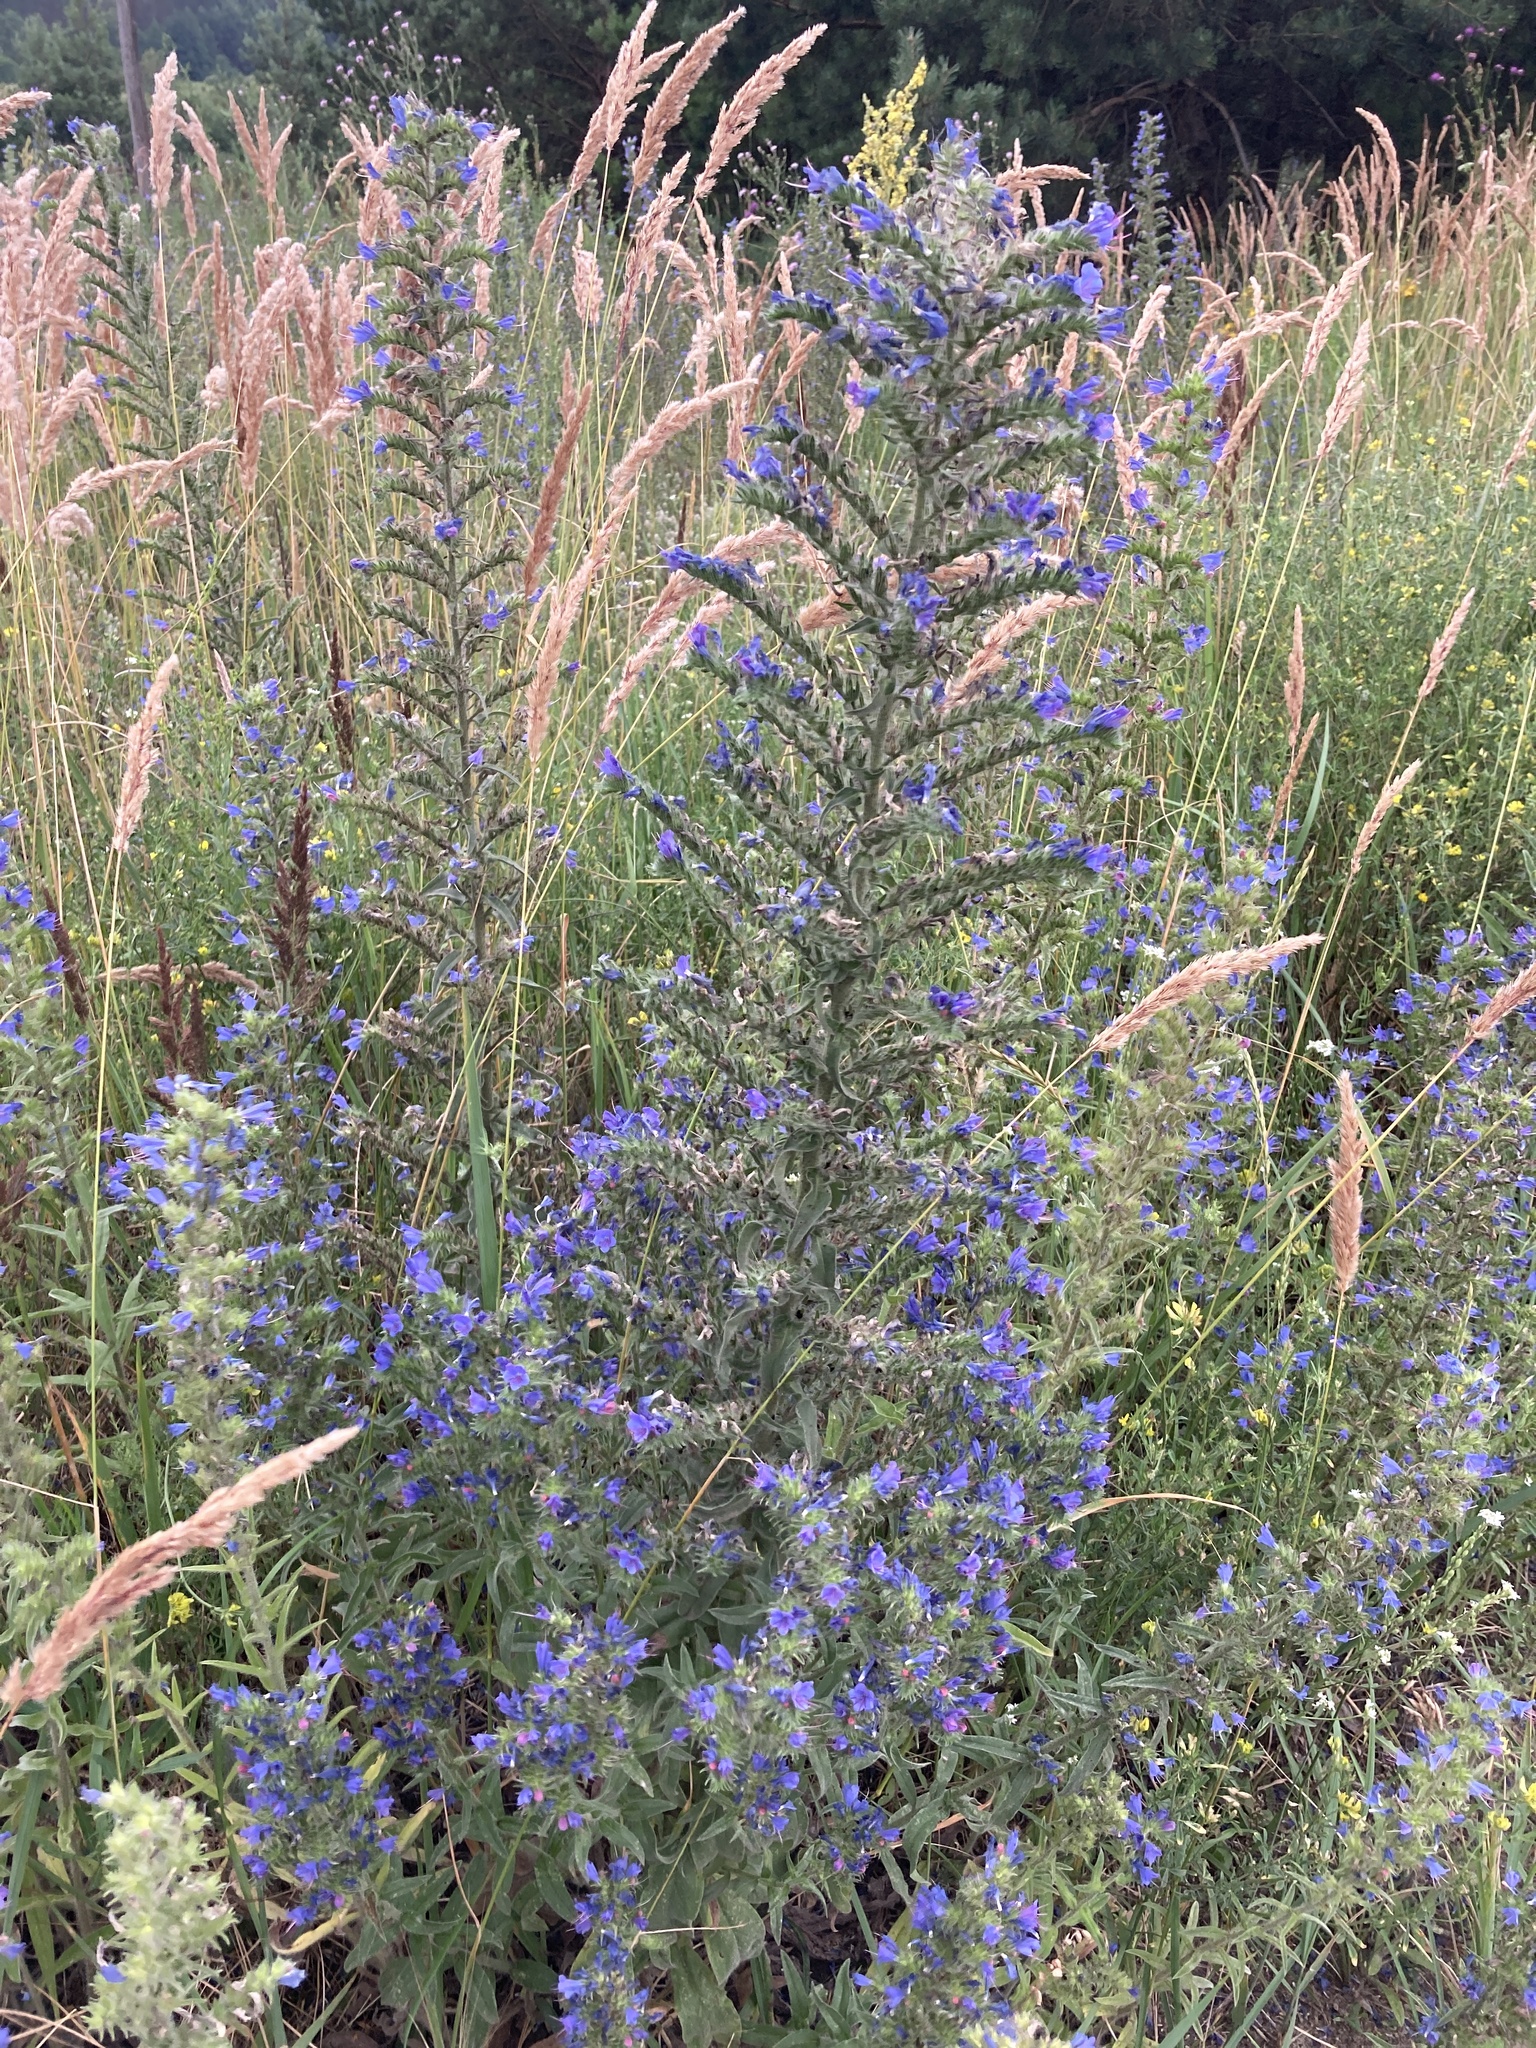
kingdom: Plantae
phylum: Tracheophyta
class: Magnoliopsida
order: Boraginales
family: Boraginaceae
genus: Echium
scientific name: Echium vulgare
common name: Common viper's bugloss
